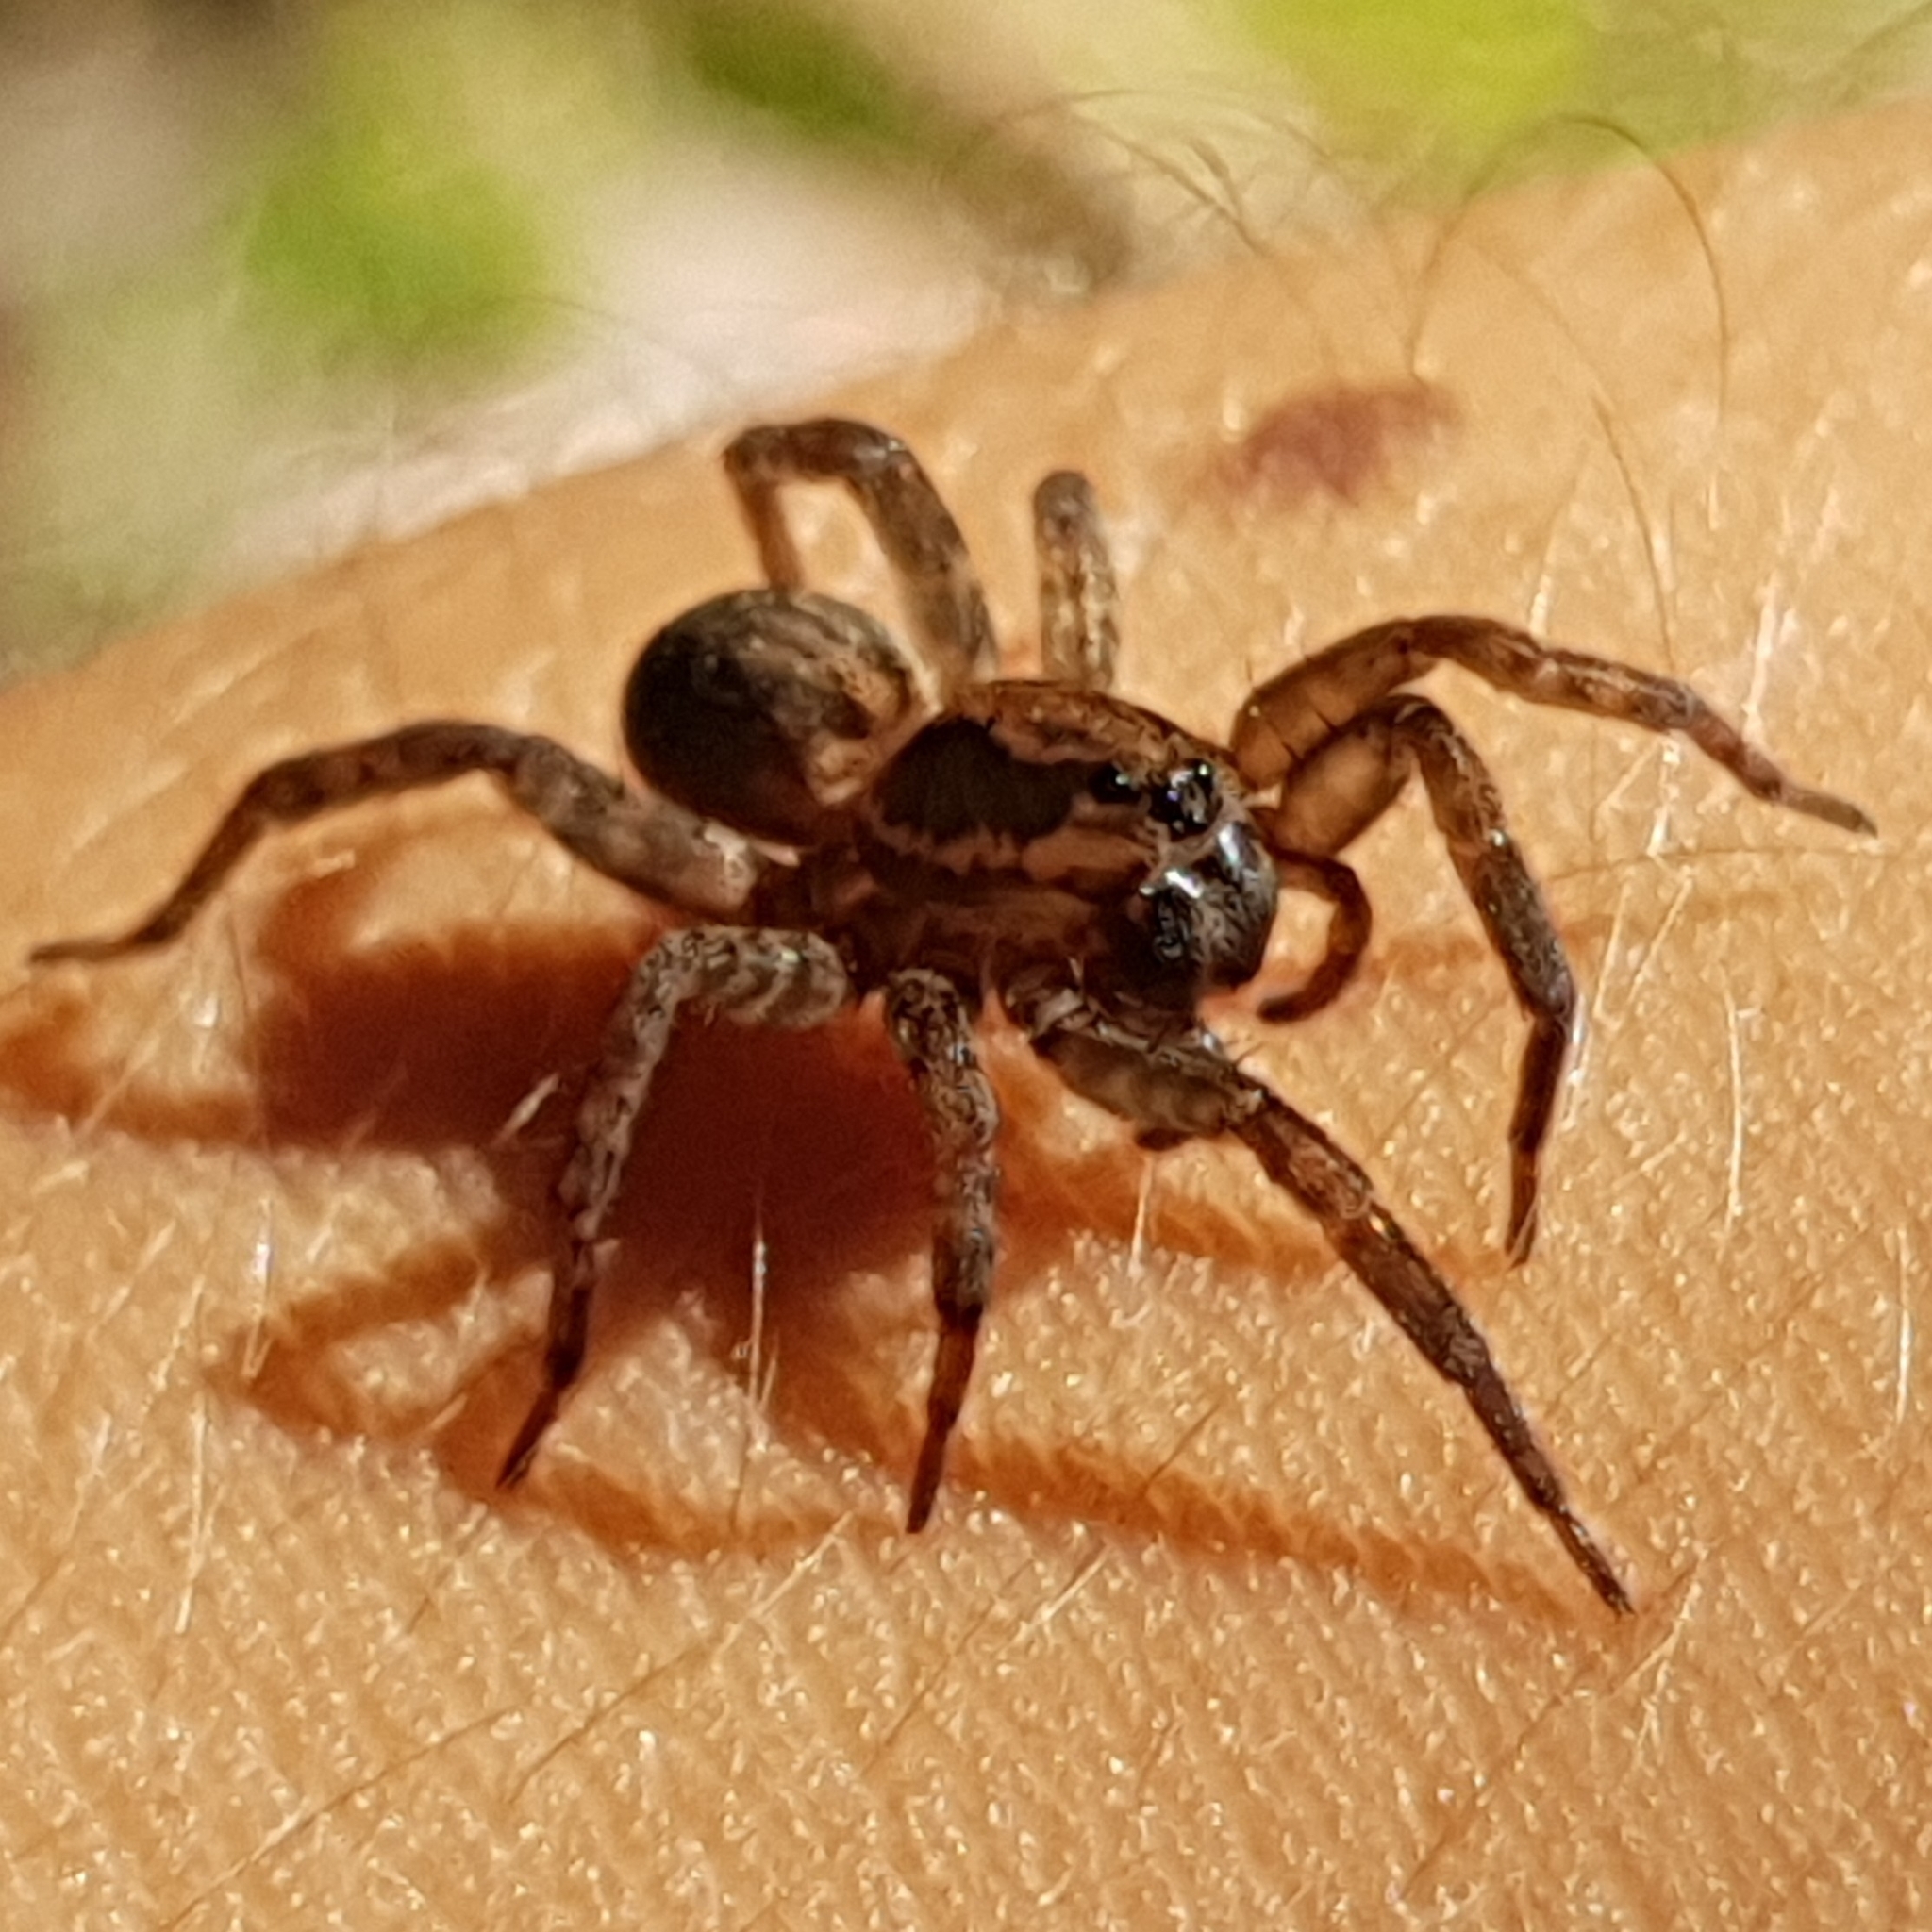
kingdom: Animalia
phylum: Arthropoda
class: Arachnida
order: Araneae
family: Lycosidae
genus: Trochosa
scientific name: Trochosa
